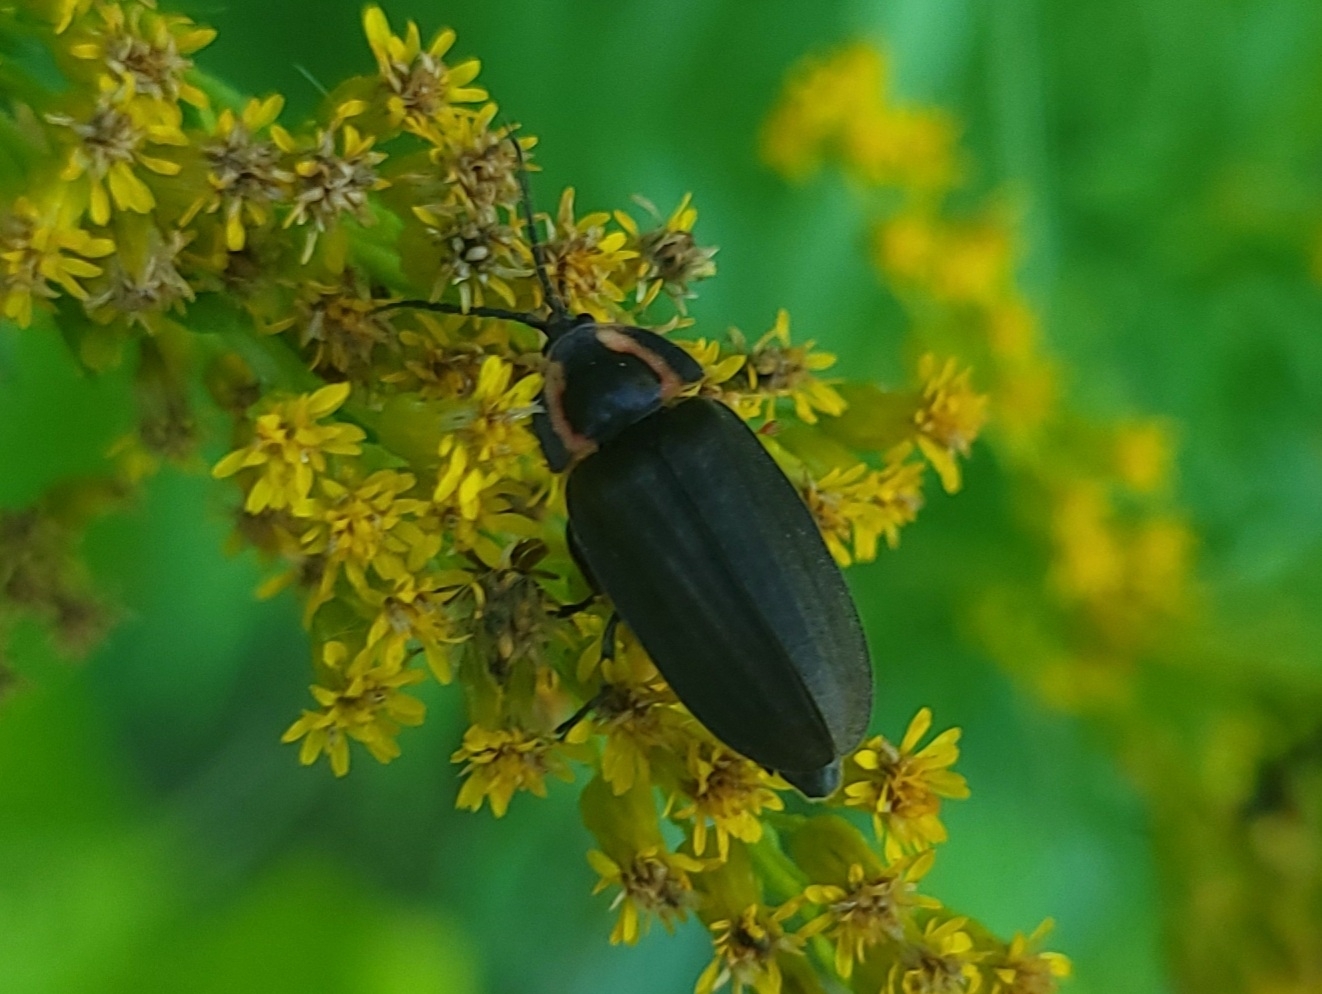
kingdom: Animalia
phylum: Arthropoda
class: Insecta
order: Coleoptera
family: Lampyridae
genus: Photinus
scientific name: Photinus corrusca
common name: Winter firefly
